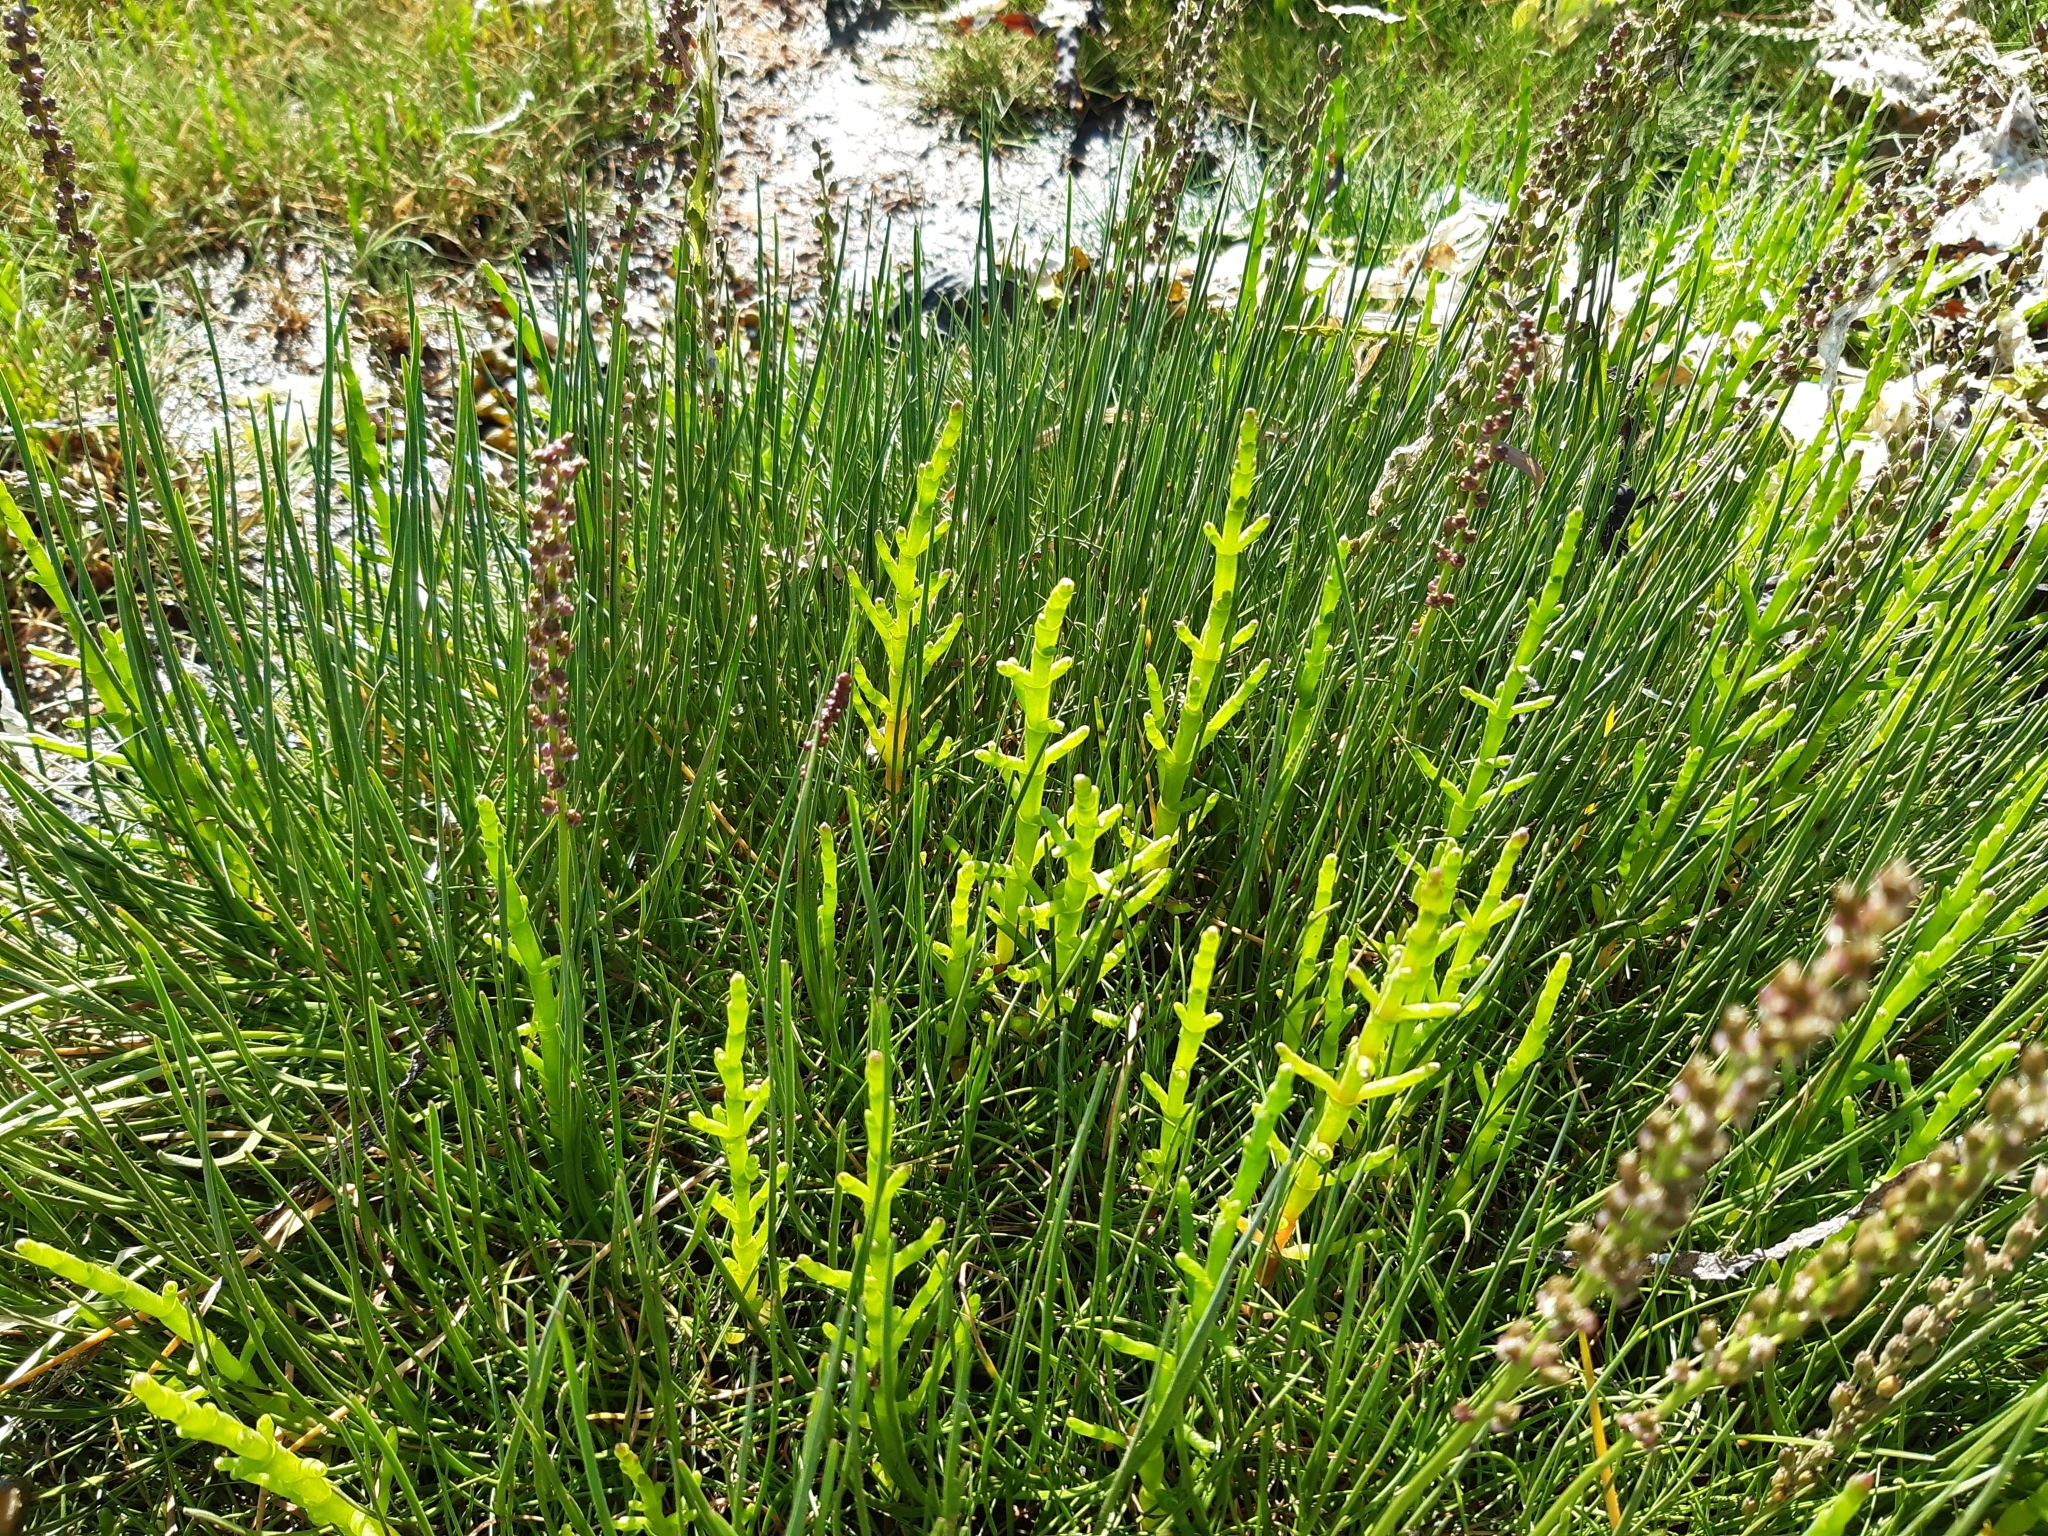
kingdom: Plantae
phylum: Tracheophyta
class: Liliopsida
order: Alismatales
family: Juncaginaceae
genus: Triglochin
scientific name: Triglochin maritima
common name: Sea arrowgrass
